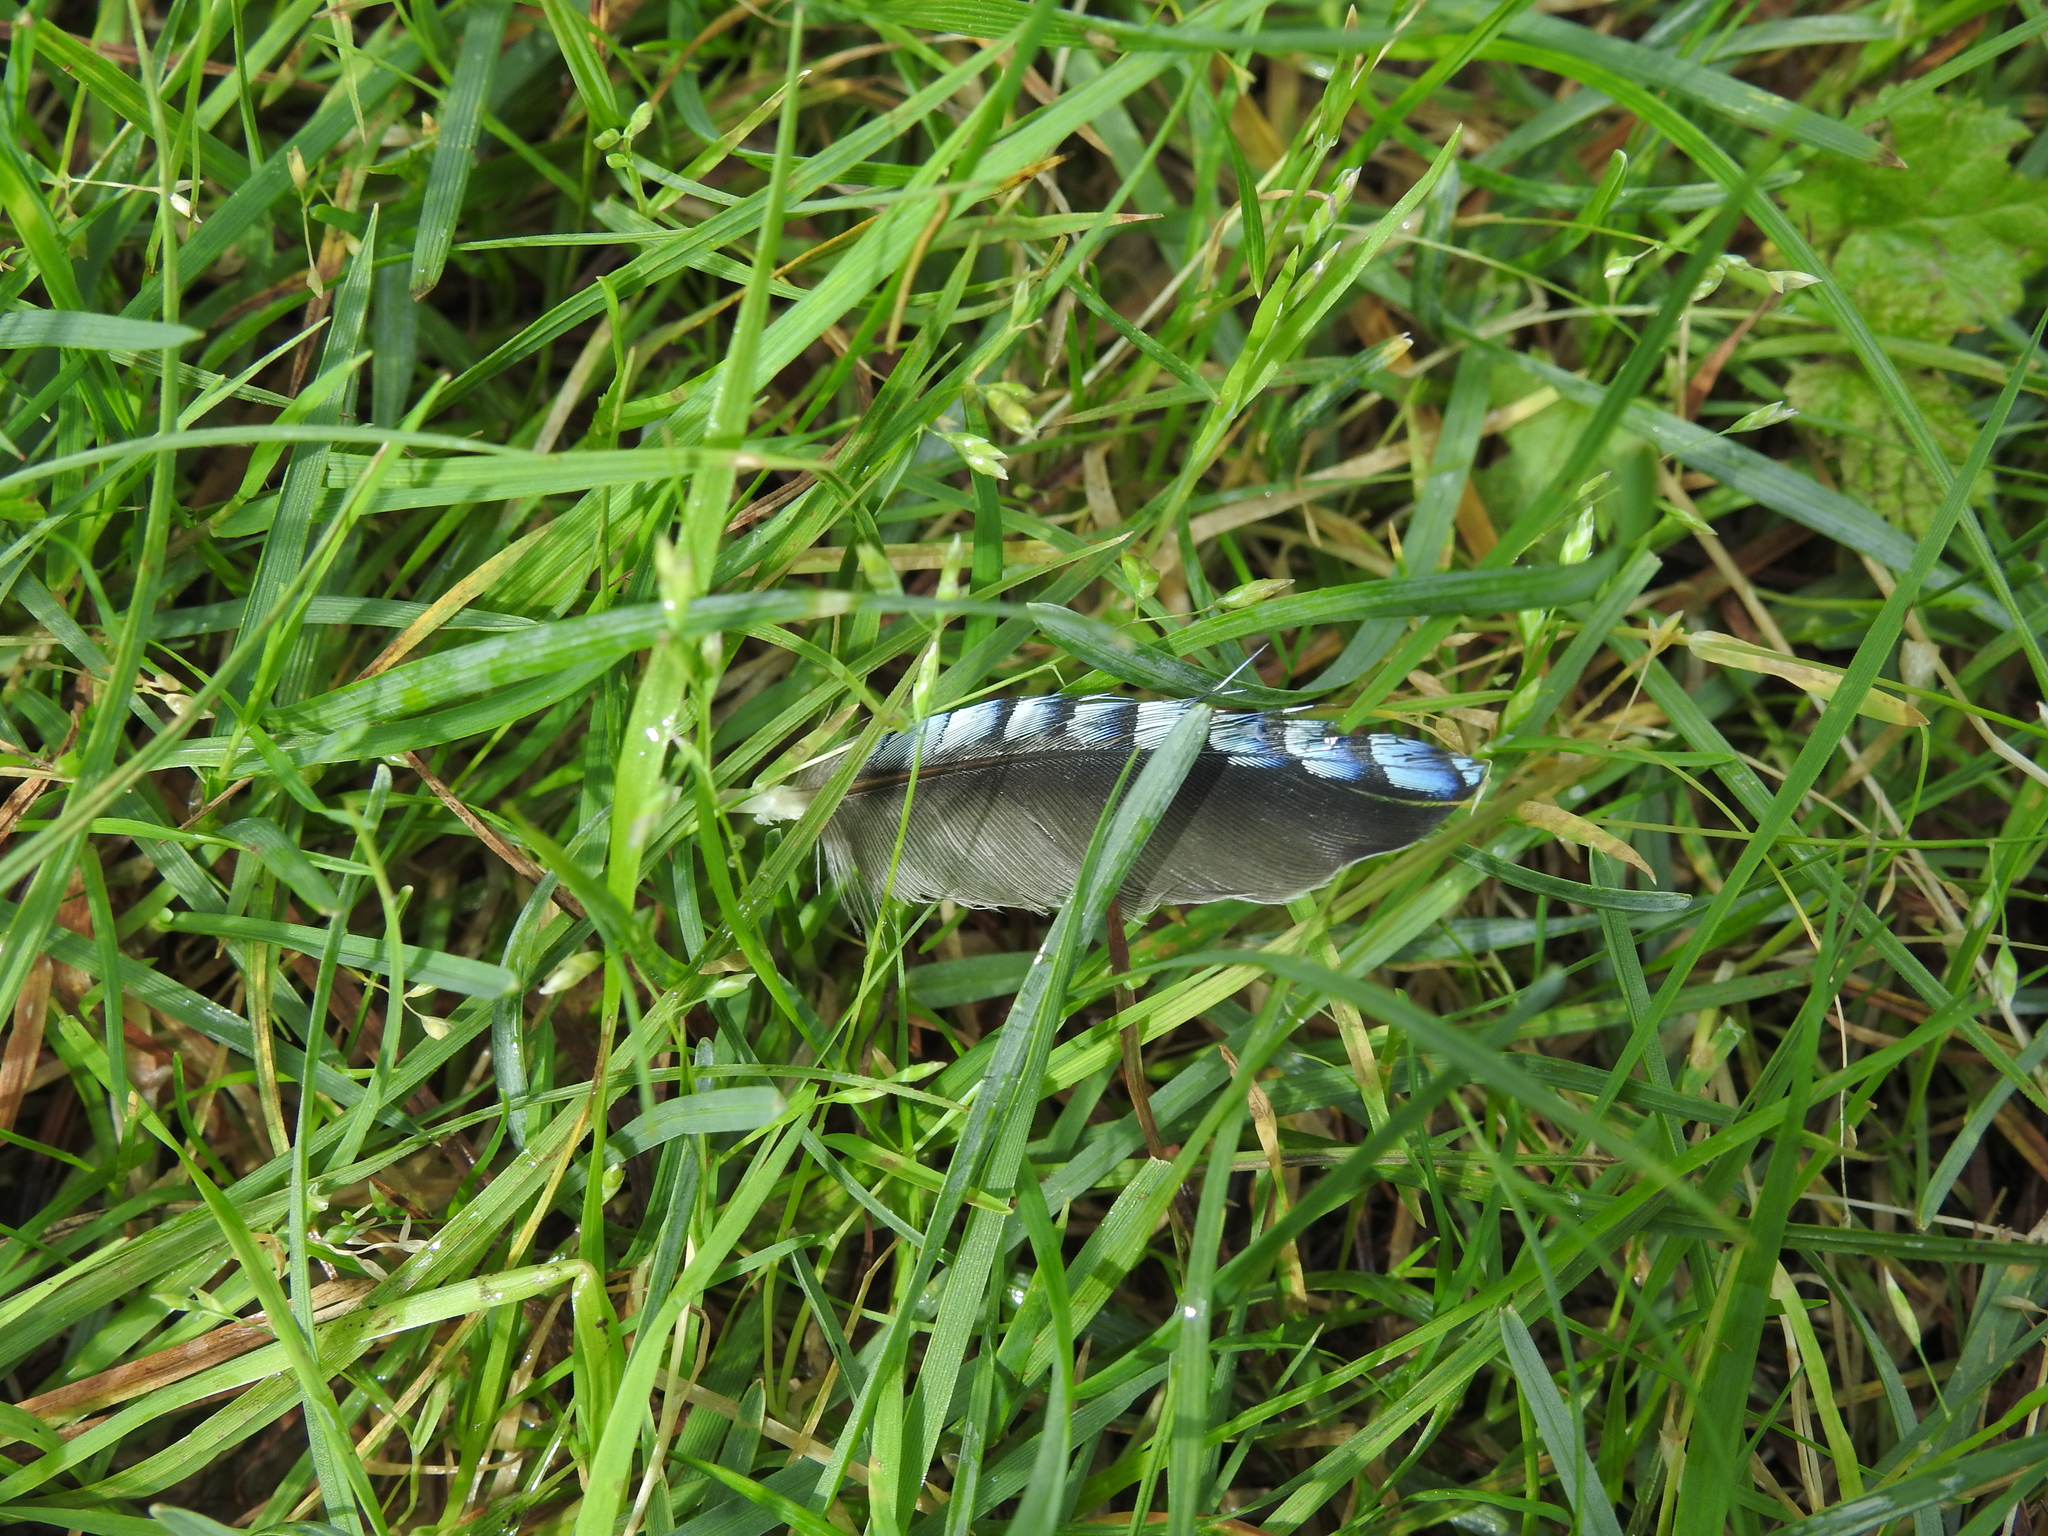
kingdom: Animalia
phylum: Chordata
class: Aves
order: Passeriformes
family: Corvidae
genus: Garrulus
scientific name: Garrulus glandarius
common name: Eurasian jay
